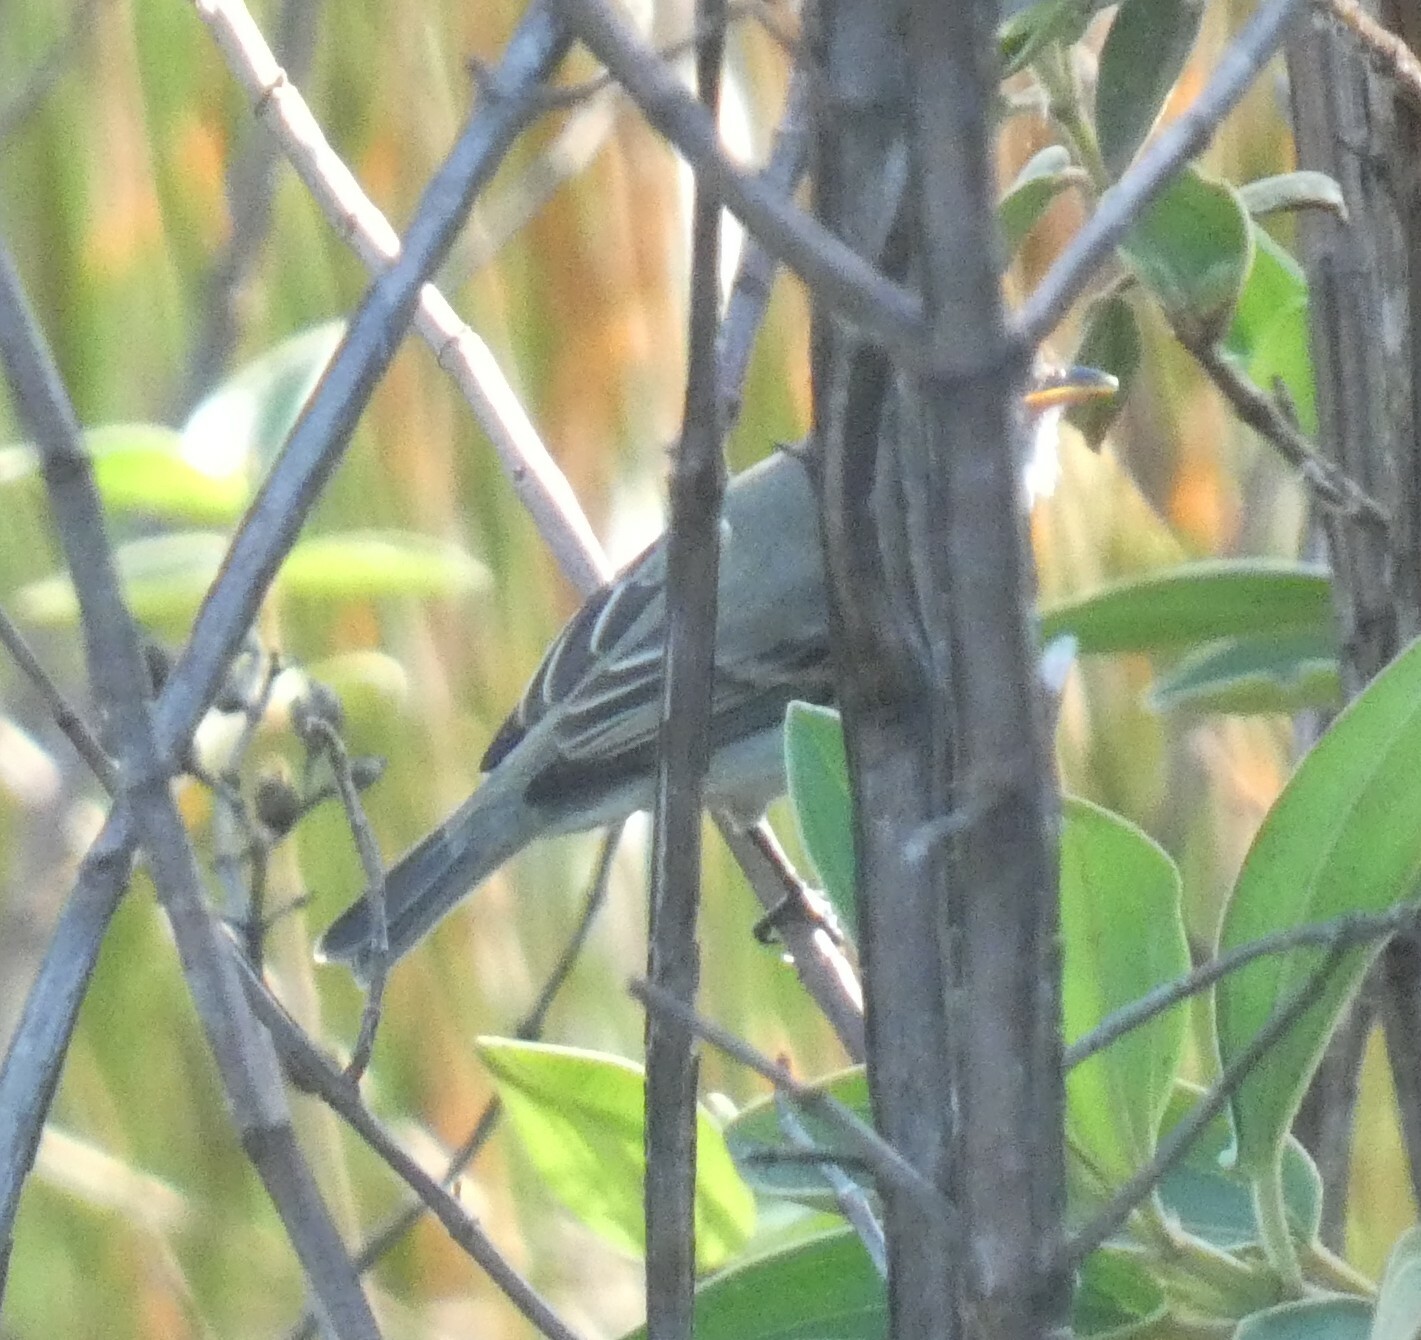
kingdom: Animalia
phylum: Chordata
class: Aves
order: Passeriformes
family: Tyrannidae
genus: Camptostoma
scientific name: Camptostoma obsoletum
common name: Southern beardless-tyrannulet
